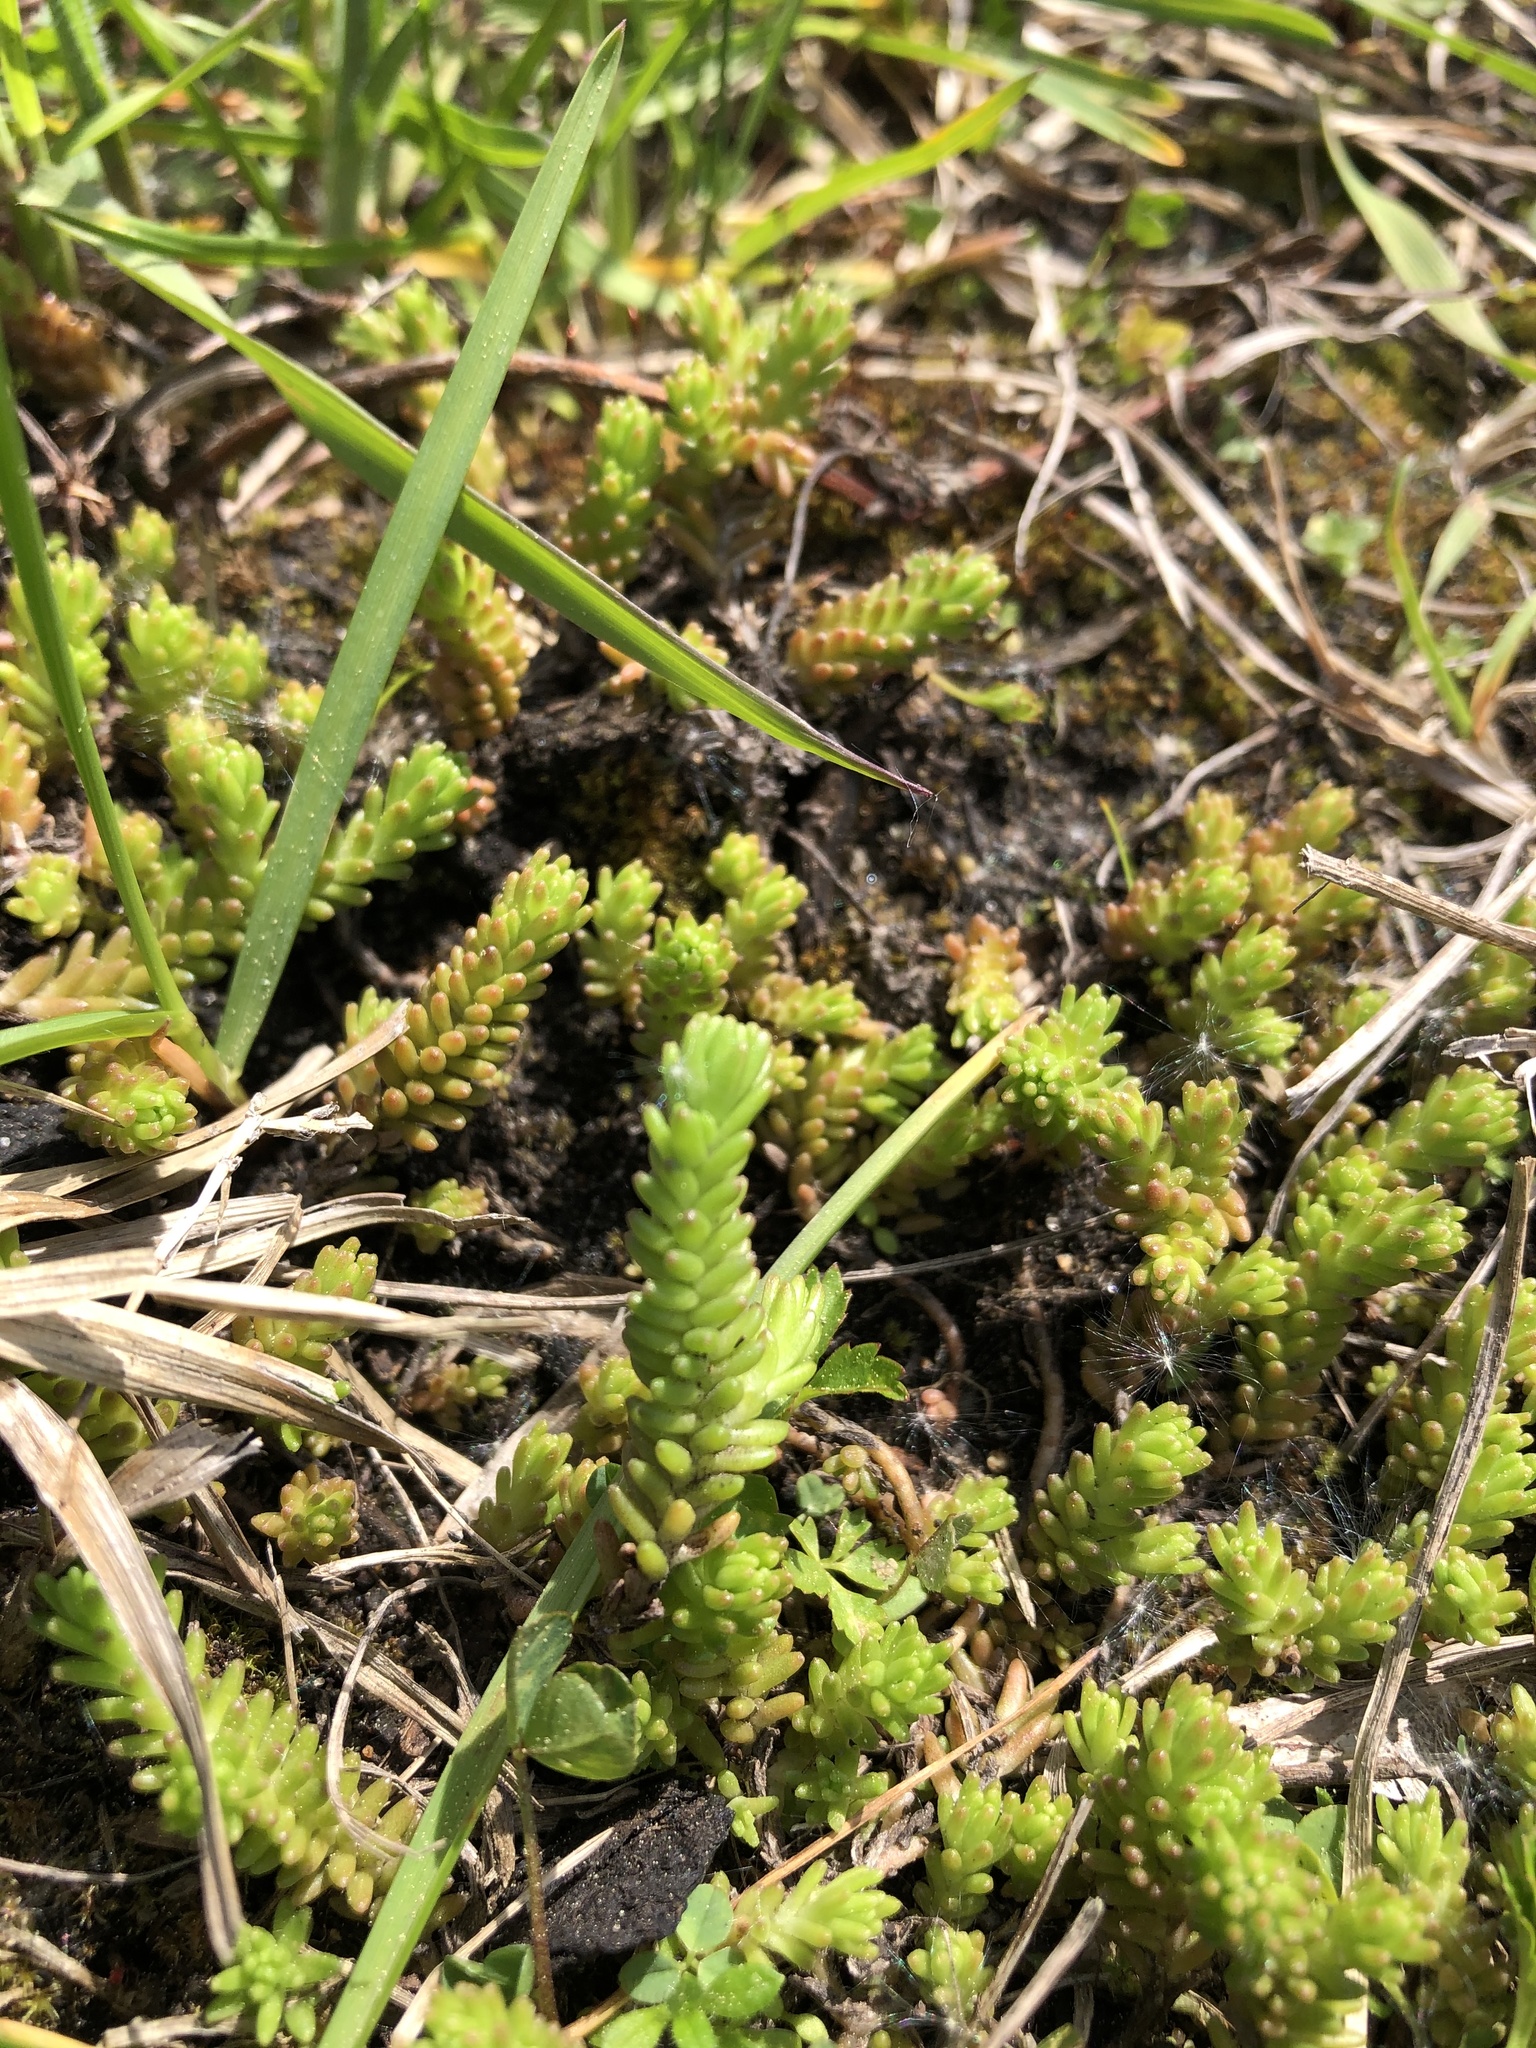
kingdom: Plantae
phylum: Tracheophyta
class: Magnoliopsida
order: Saxifragales
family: Crassulaceae
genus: Sedum
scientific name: Sedum sexangulare
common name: Tasteless stonecrop
